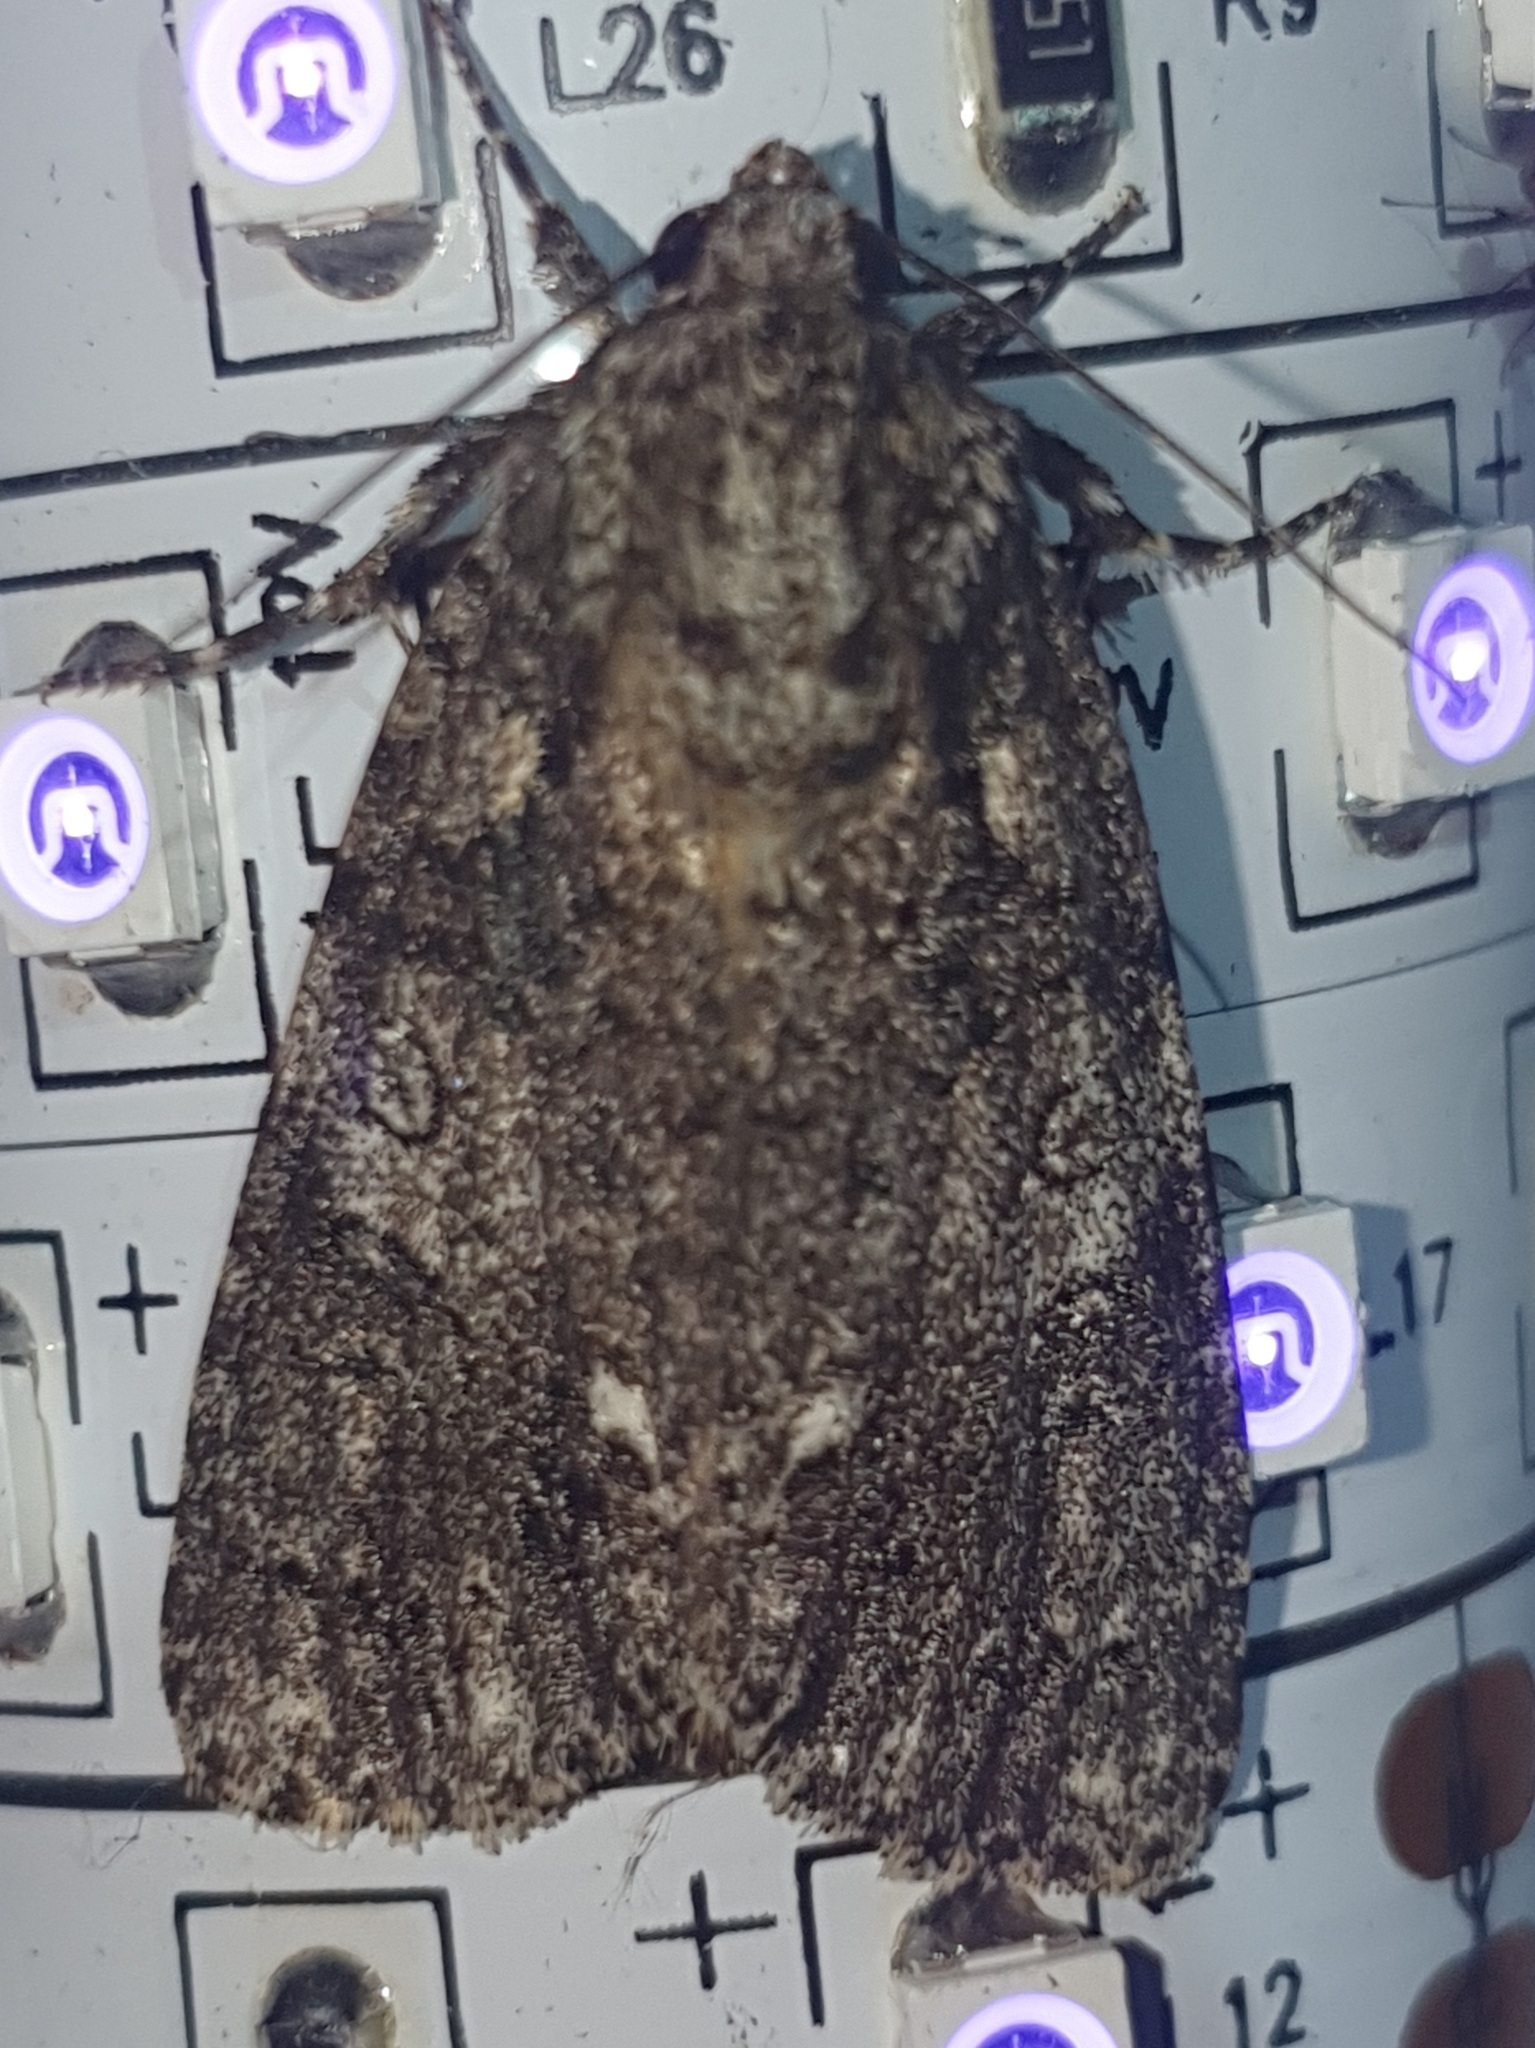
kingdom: Animalia
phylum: Arthropoda
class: Insecta
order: Lepidoptera
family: Noctuidae
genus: Acronicta
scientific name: Acronicta rumicis
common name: Knot grass
